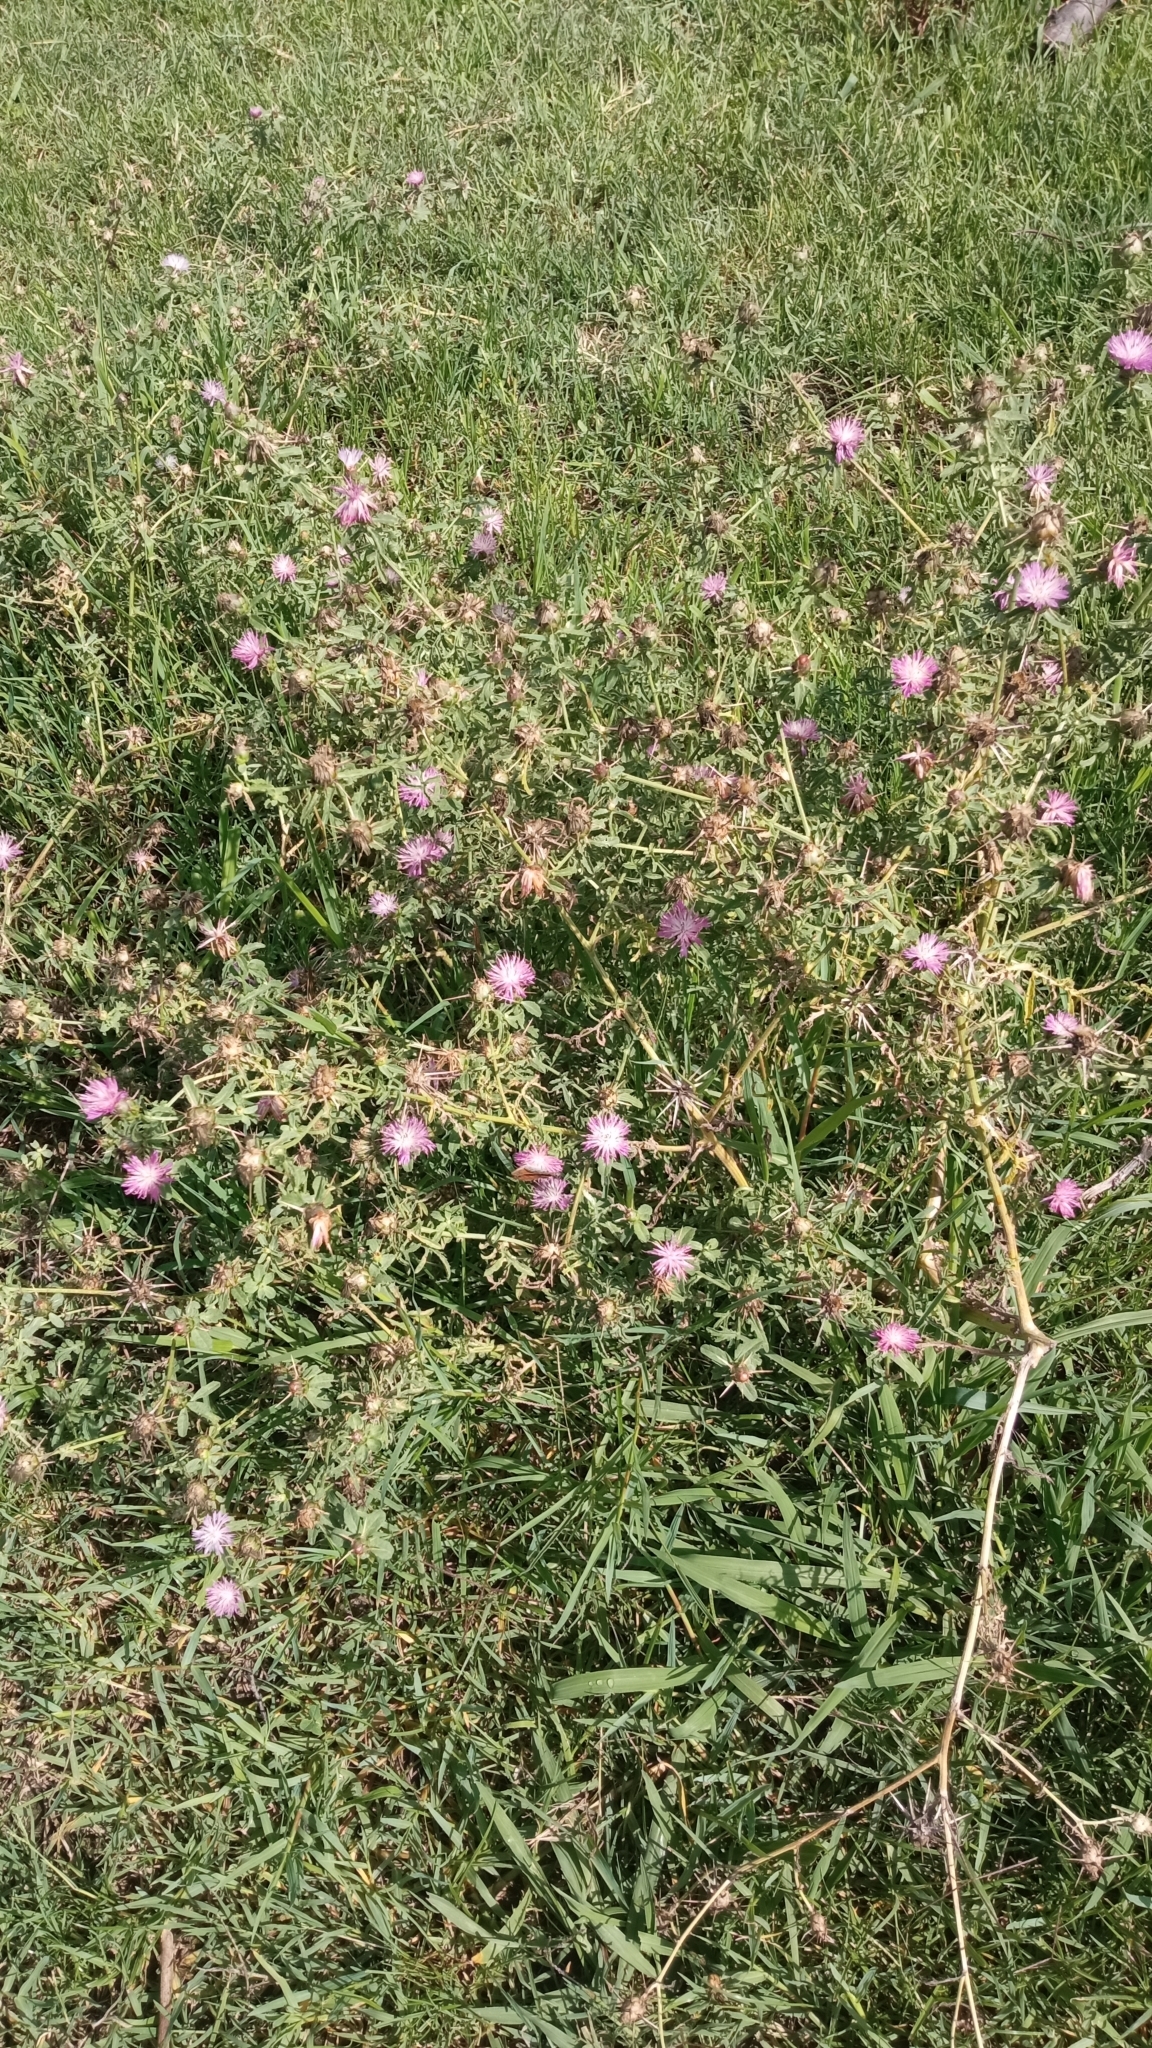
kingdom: Plantae
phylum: Tracheophyta
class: Magnoliopsida
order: Asterales
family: Asteraceae
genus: Centaurea
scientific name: Centaurea iberica
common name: Iberian knapweed
